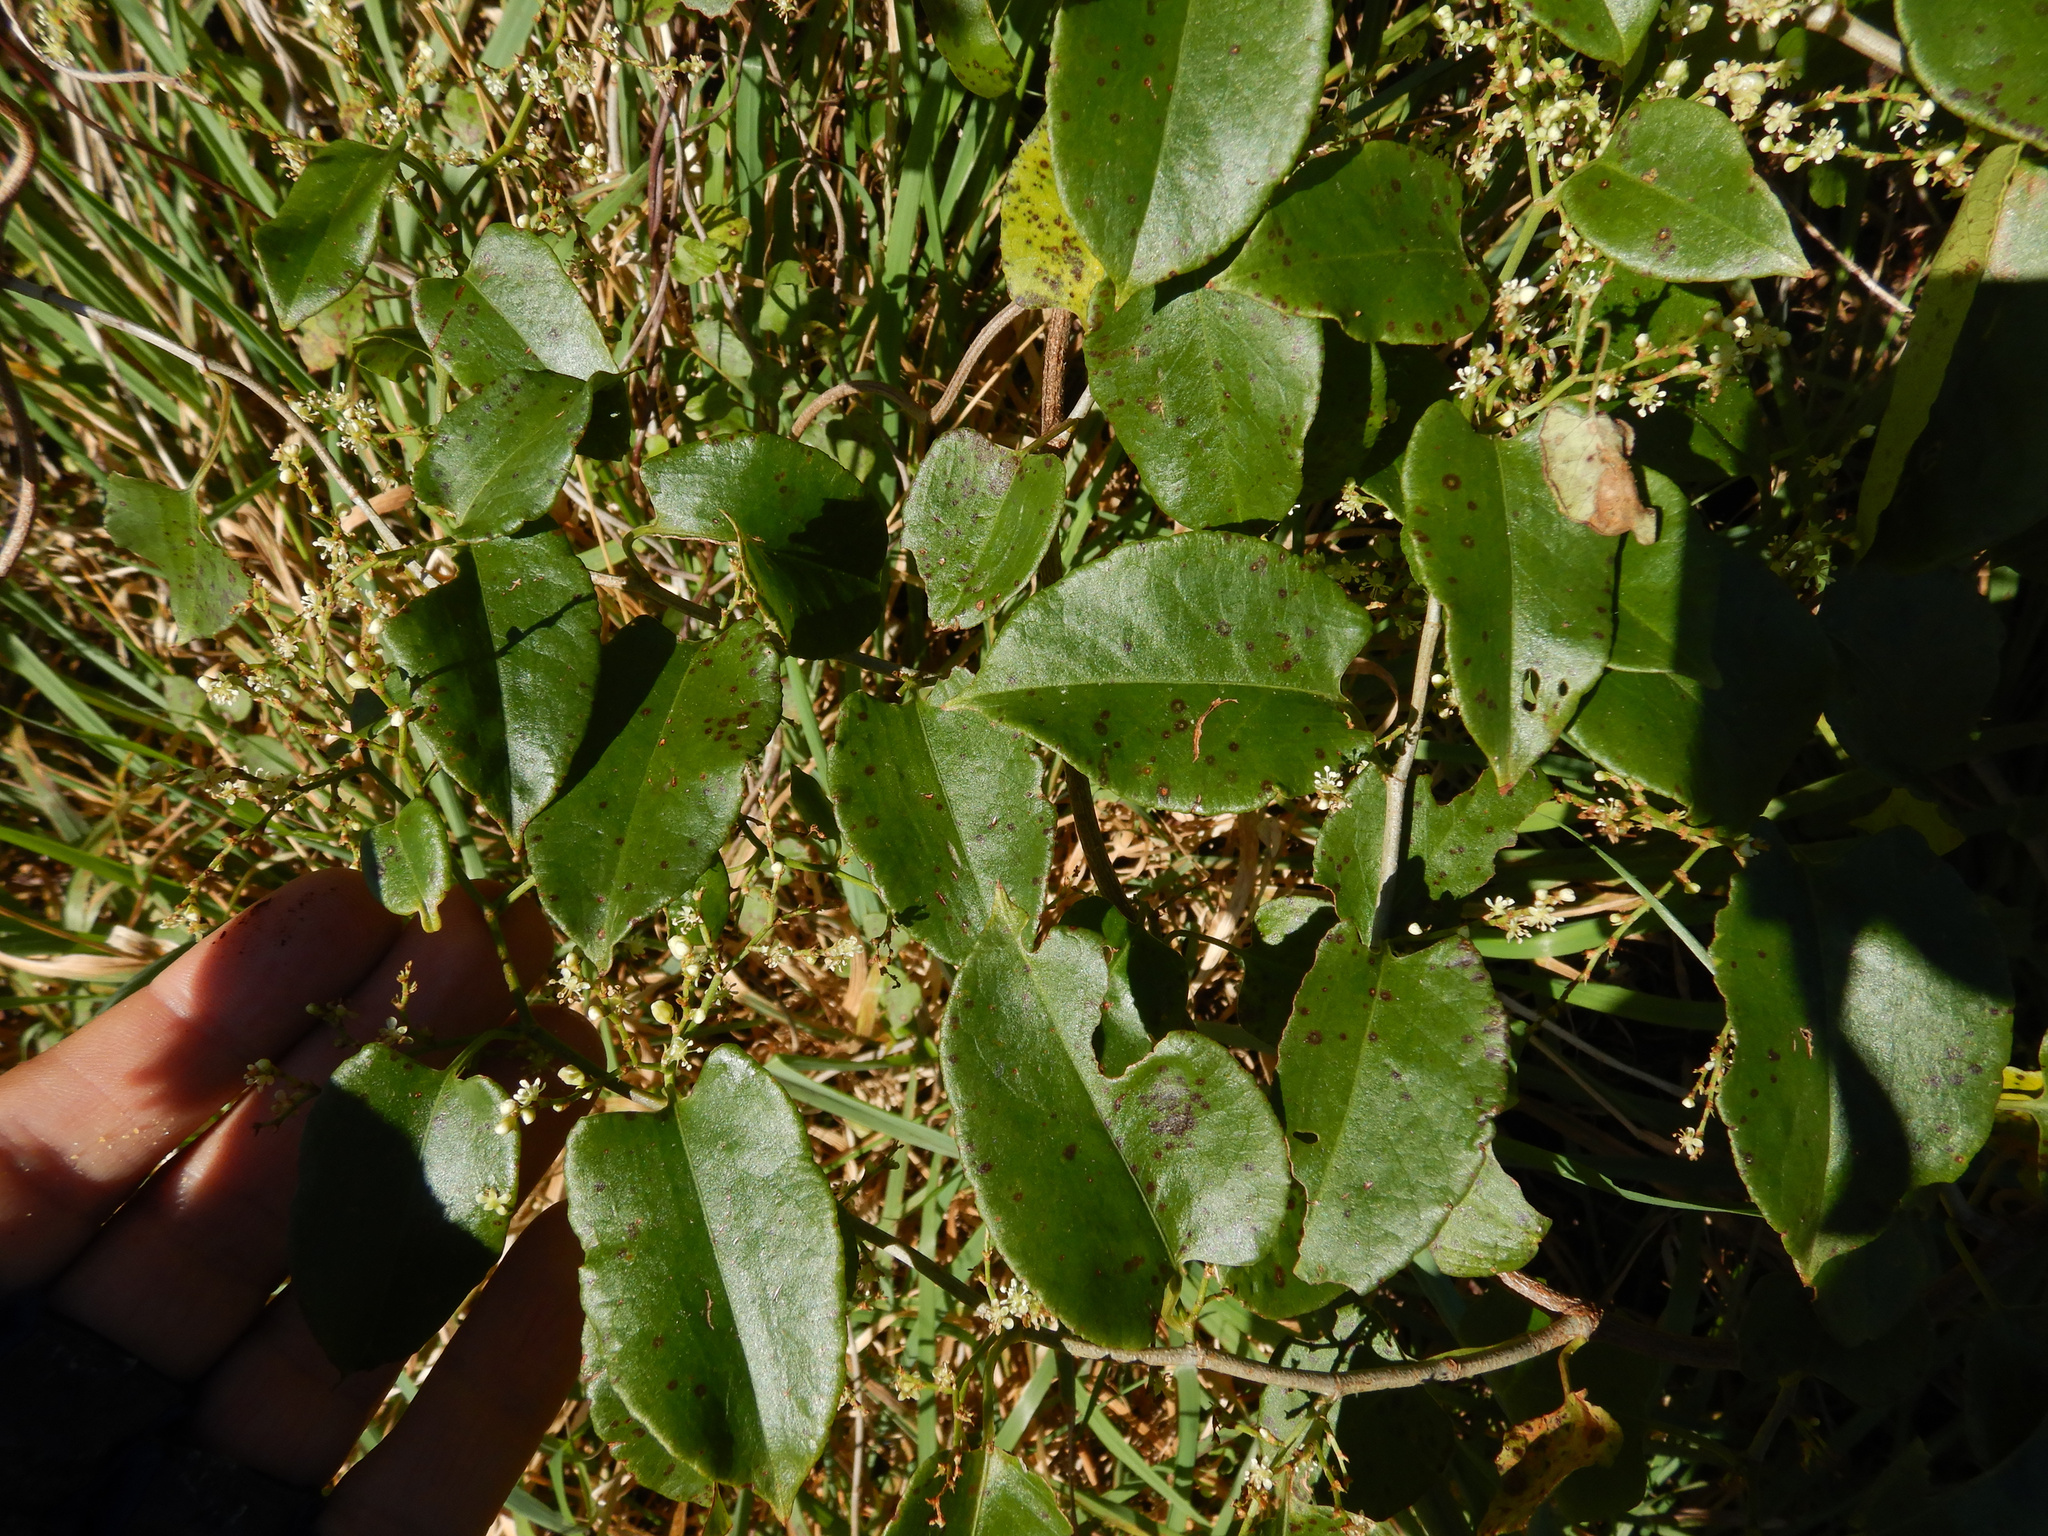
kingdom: Plantae
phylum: Tracheophyta
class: Magnoliopsida
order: Caryophyllales
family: Polygonaceae
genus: Muehlenbeckia
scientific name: Muehlenbeckia australis
